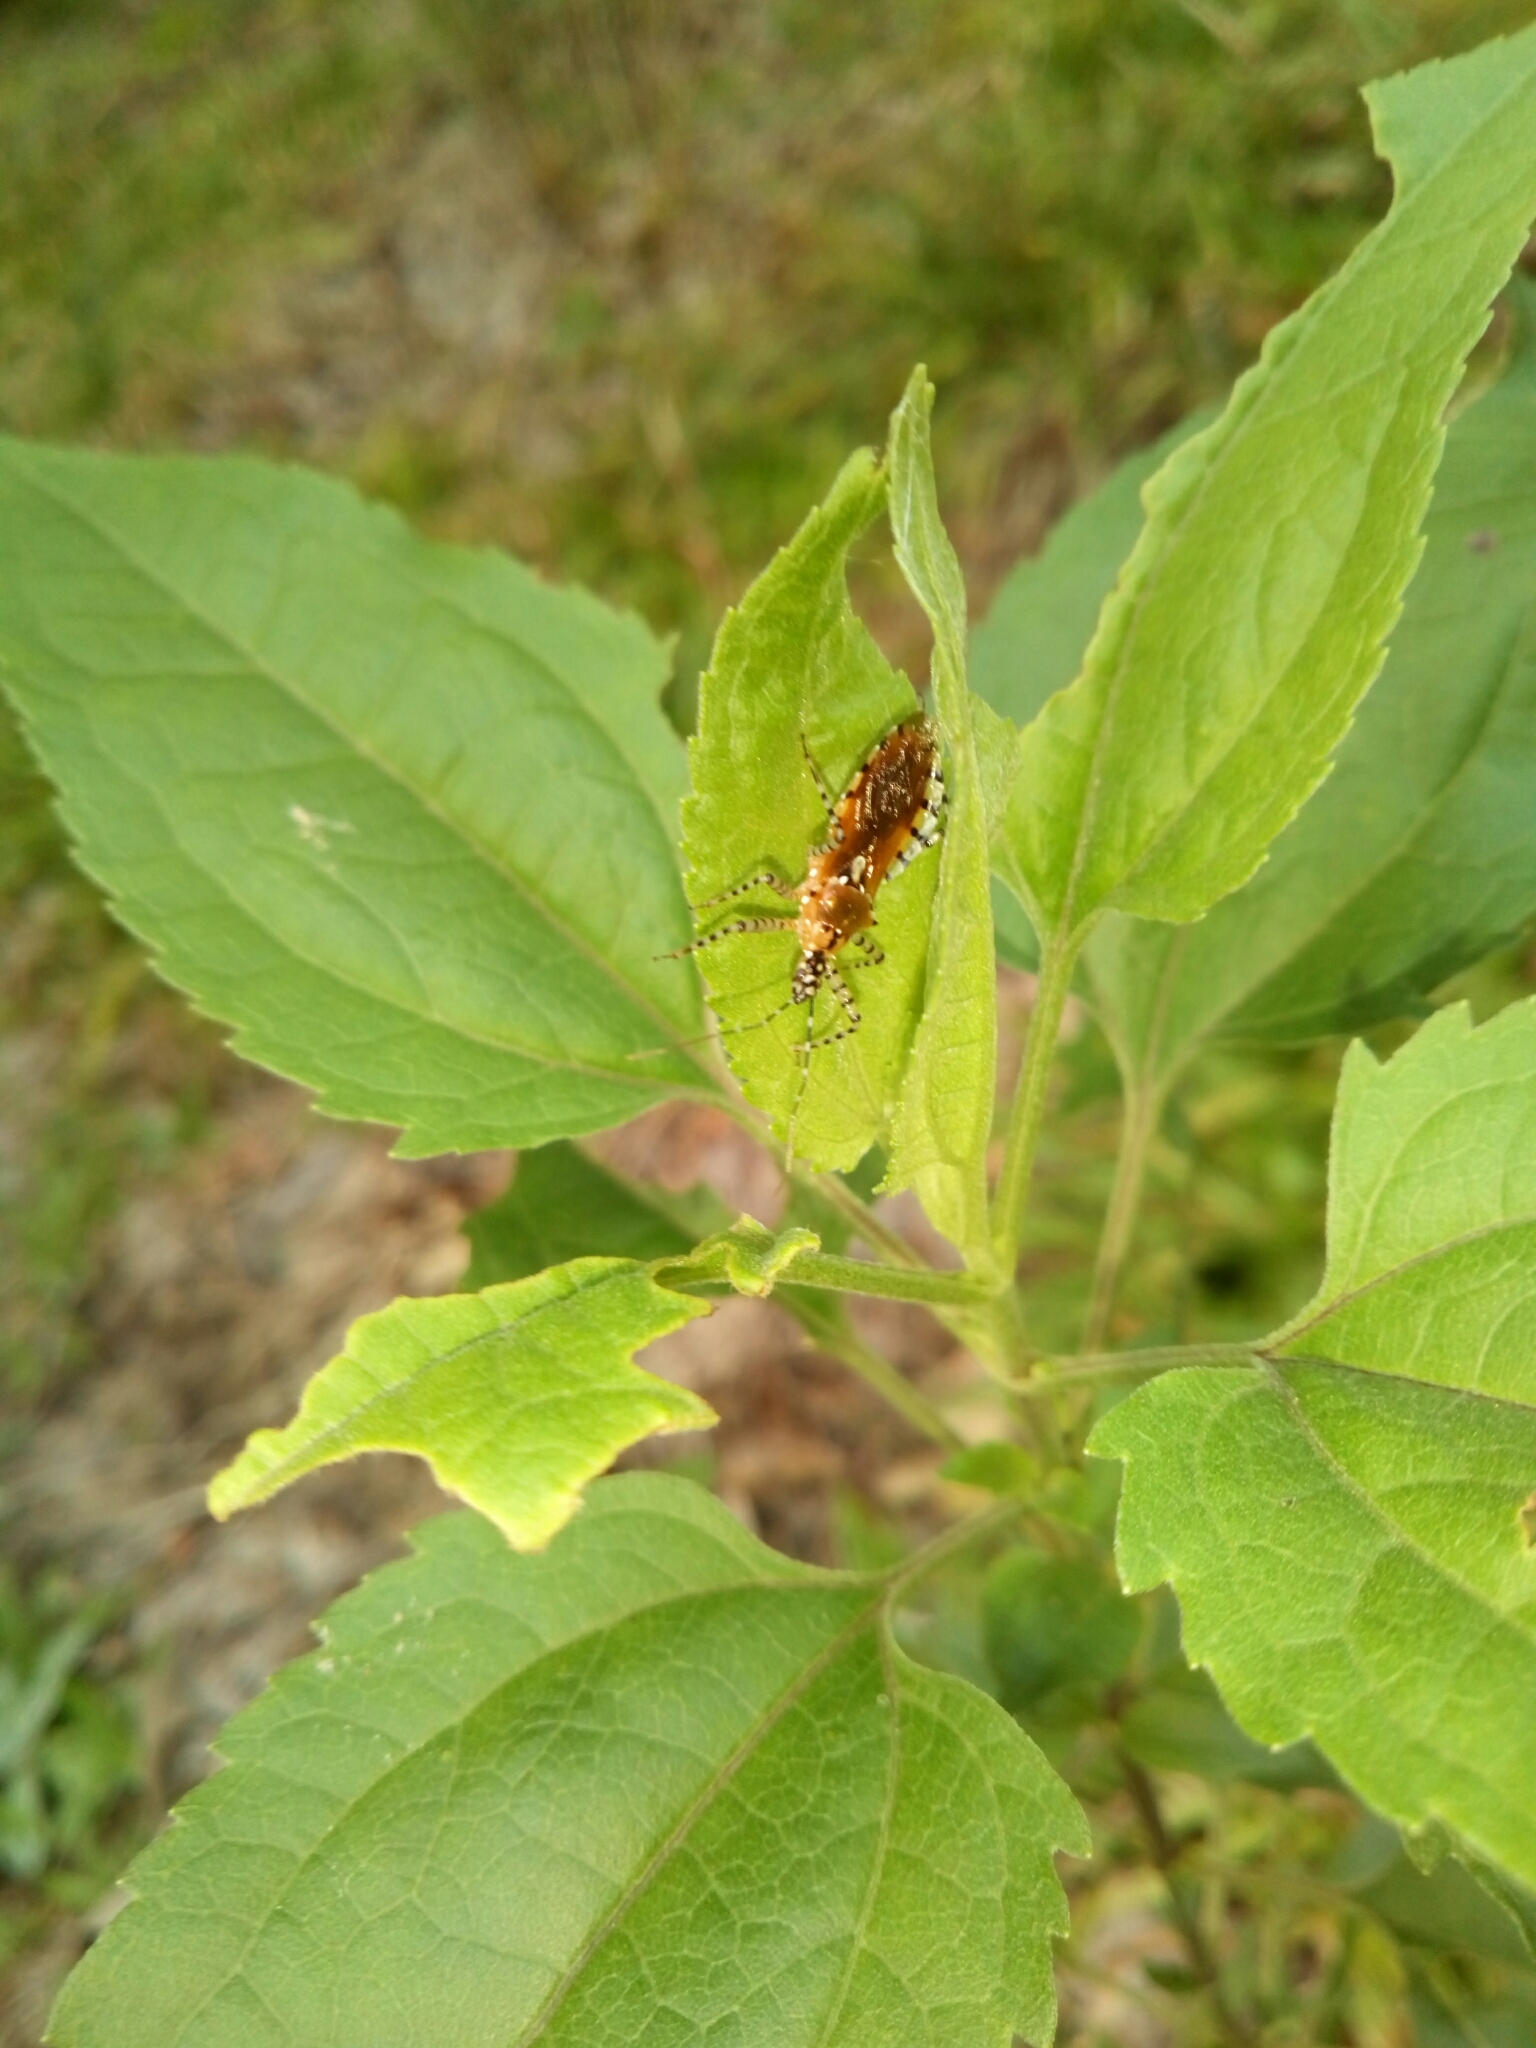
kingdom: Animalia
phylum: Arthropoda
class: Insecta
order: Hemiptera
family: Reduviidae
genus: Pselliopus
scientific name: Pselliopus cinctus
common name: Ringed assassin bug
